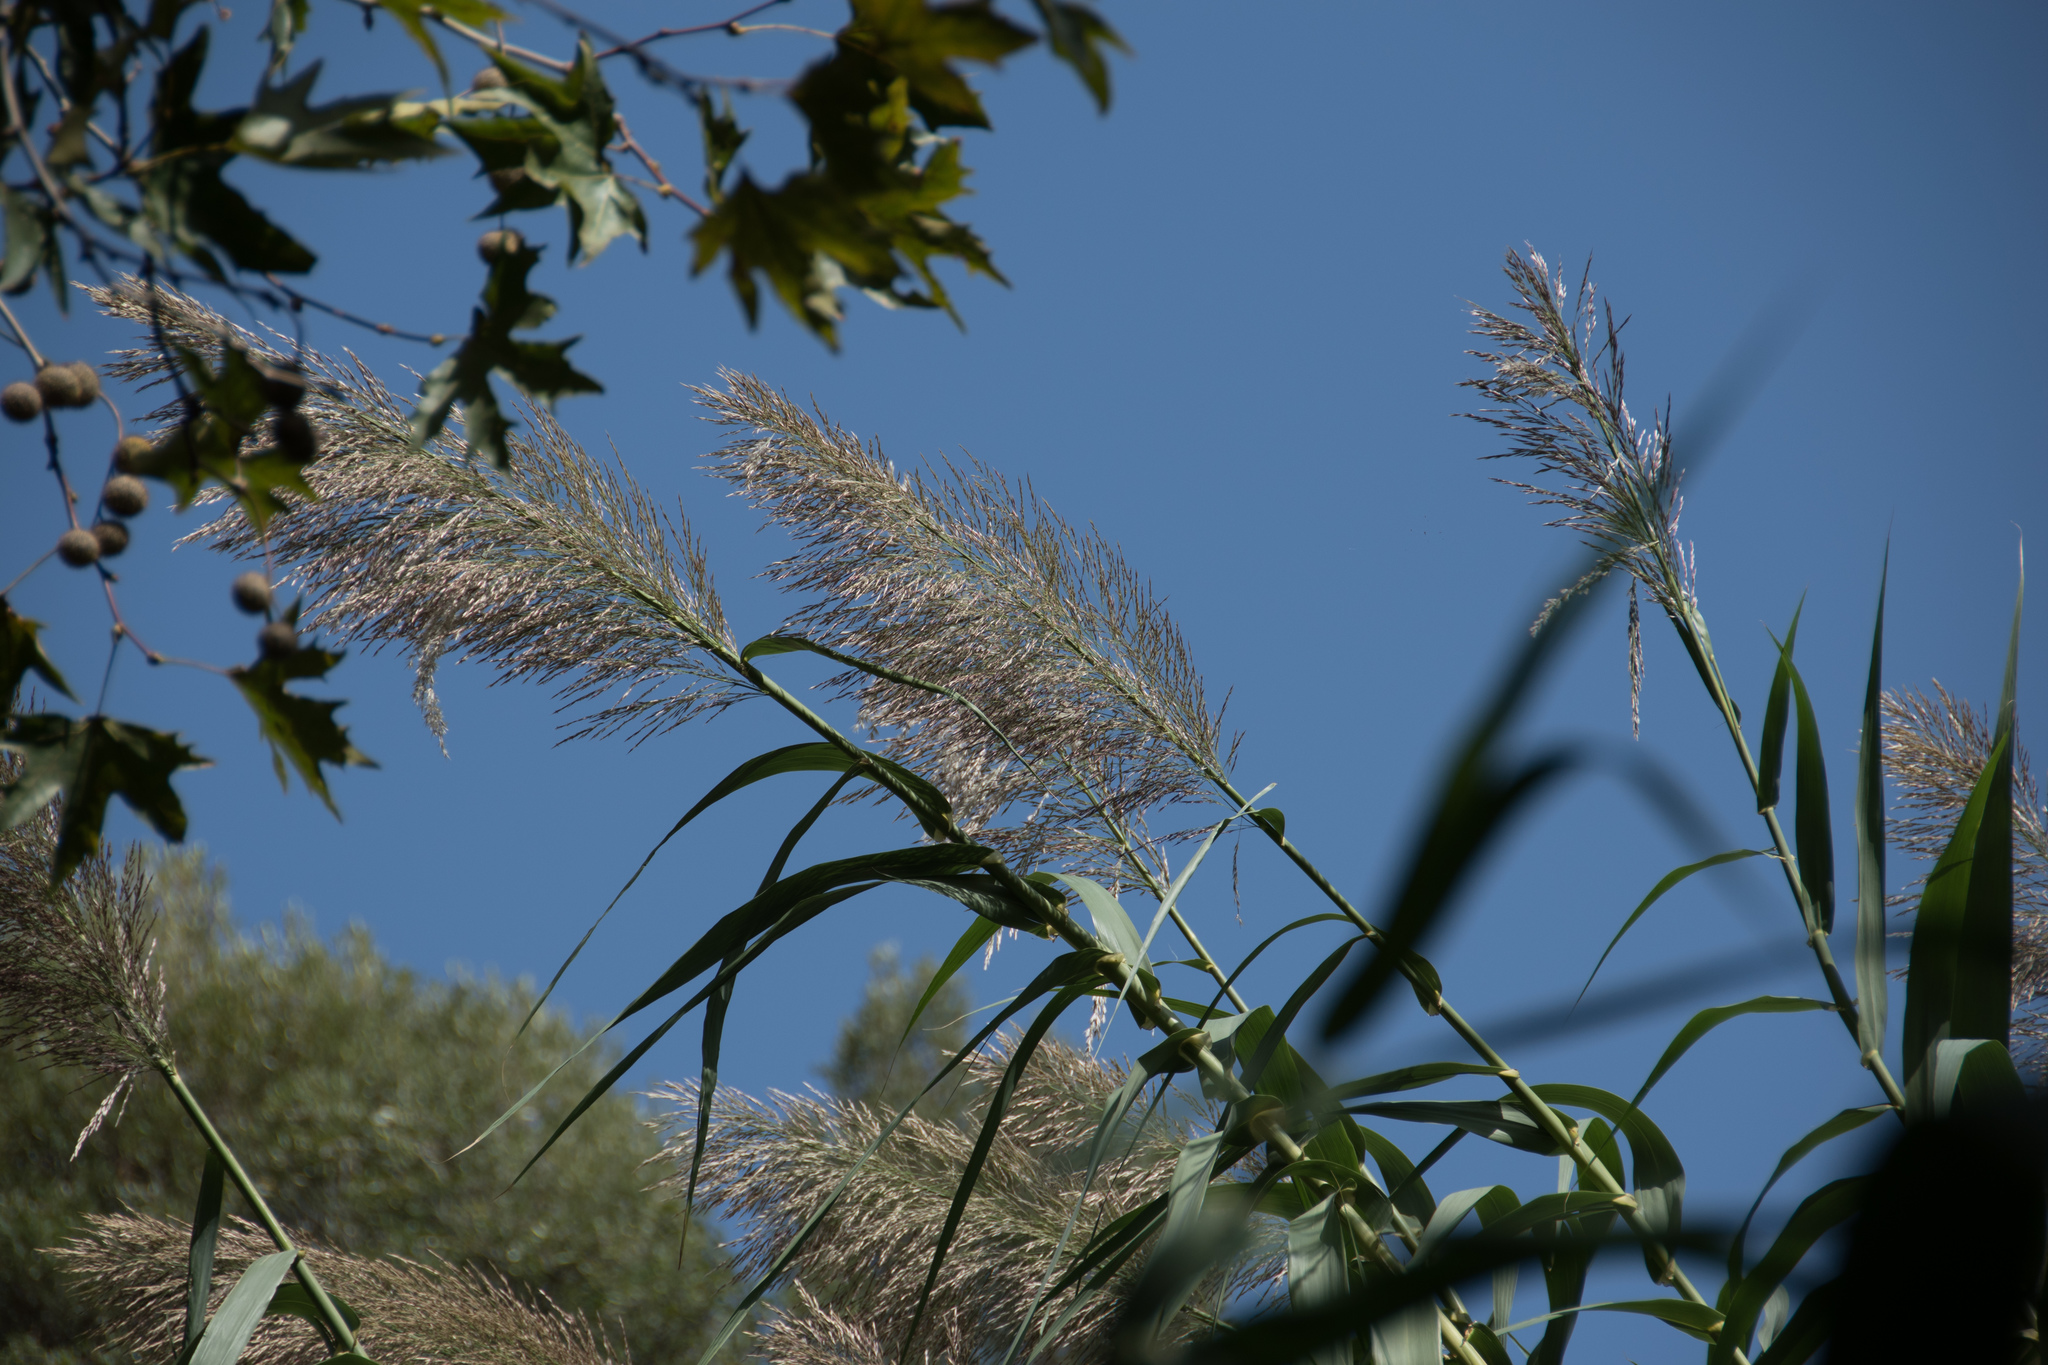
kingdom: Plantae
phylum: Tracheophyta
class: Liliopsida
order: Poales
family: Poaceae
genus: Arundo
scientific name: Arundo donax
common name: Giant reed
